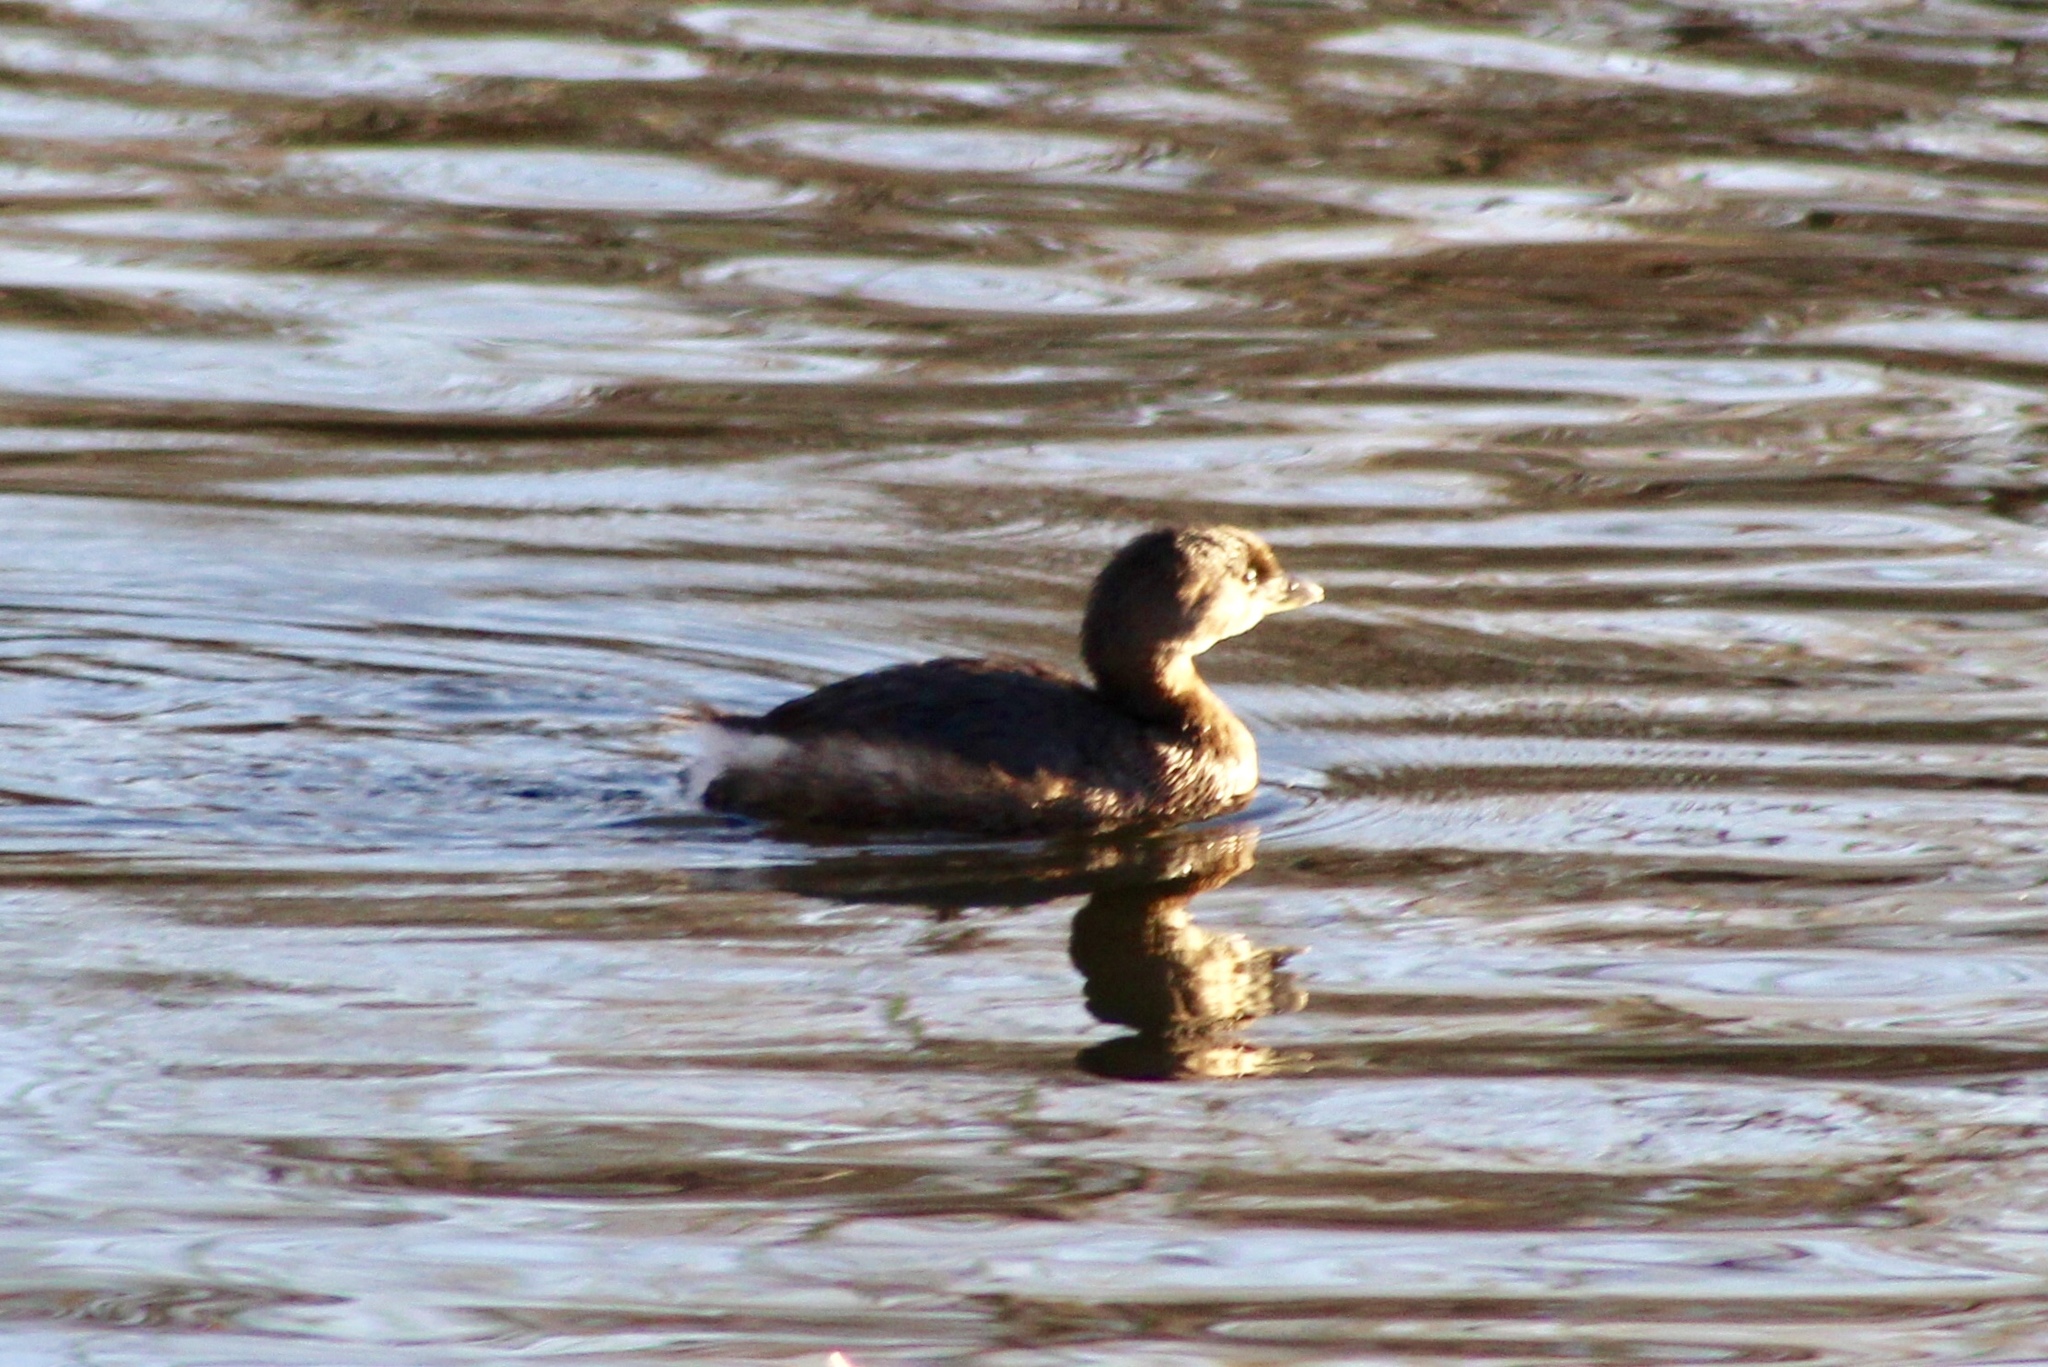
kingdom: Animalia
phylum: Chordata
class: Aves
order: Podicipediformes
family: Podicipedidae
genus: Podilymbus
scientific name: Podilymbus podiceps
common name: Pied-billed grebe
